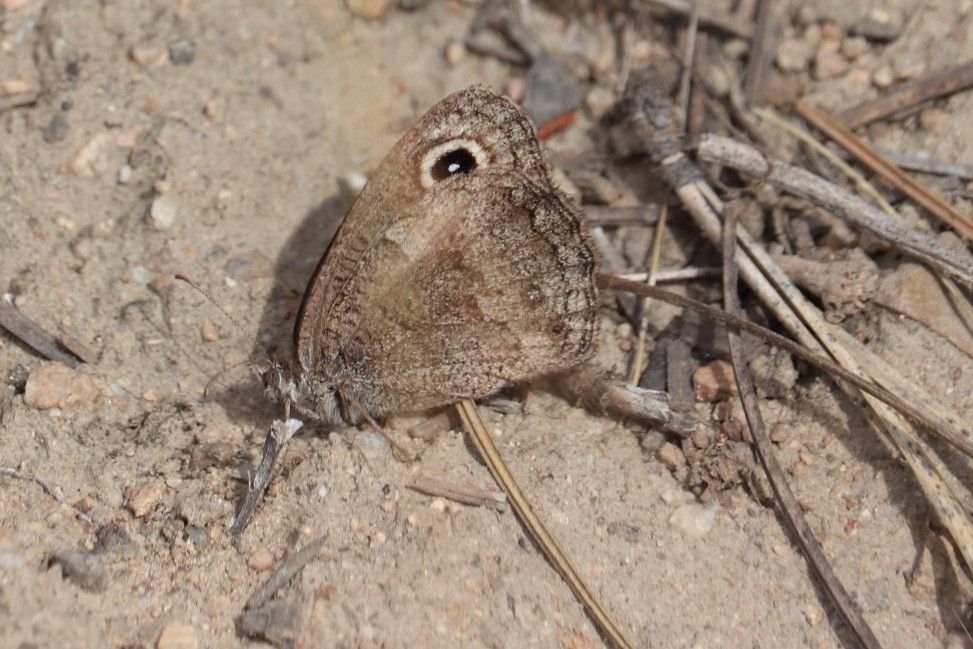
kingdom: Animalia
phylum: Arthropoda
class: Insecta
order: Lepidoptera
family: Nymphalidae
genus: Cercyonis
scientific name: Cercyonis pegala
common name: Common wood-nymph
